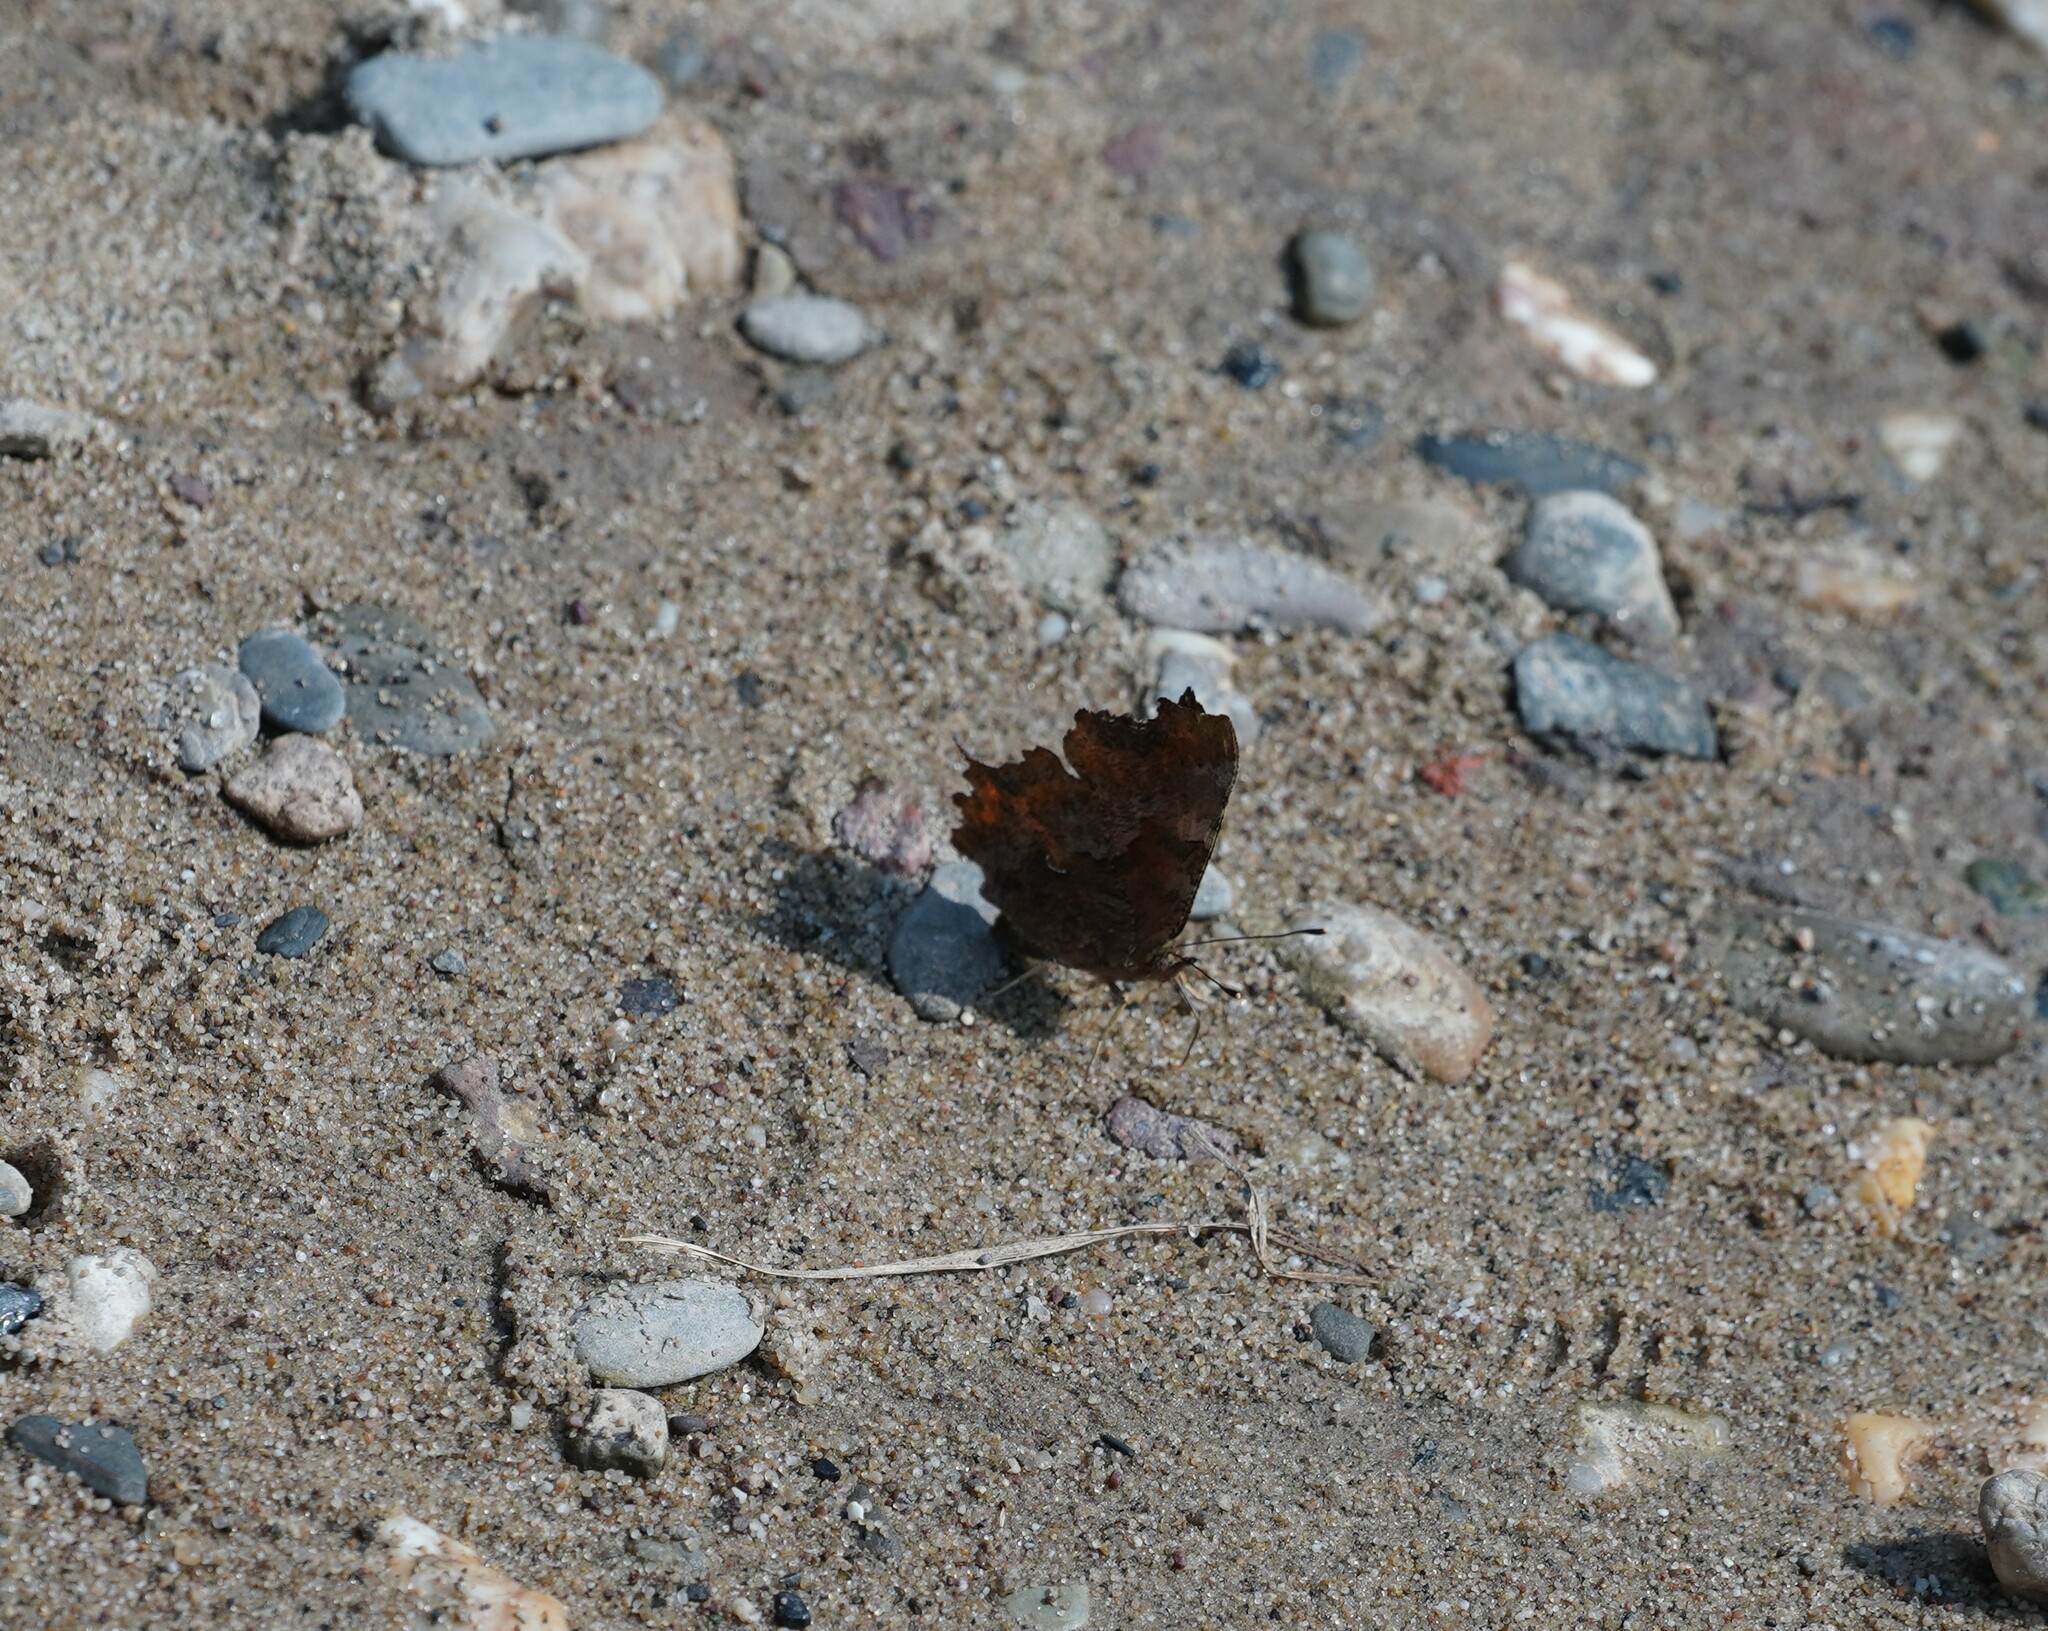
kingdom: Animalia
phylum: Arthropoda
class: Insecta
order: Lepidoptera
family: Nymphalidae
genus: Polygonia
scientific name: Polygonia c-album
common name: Comma
